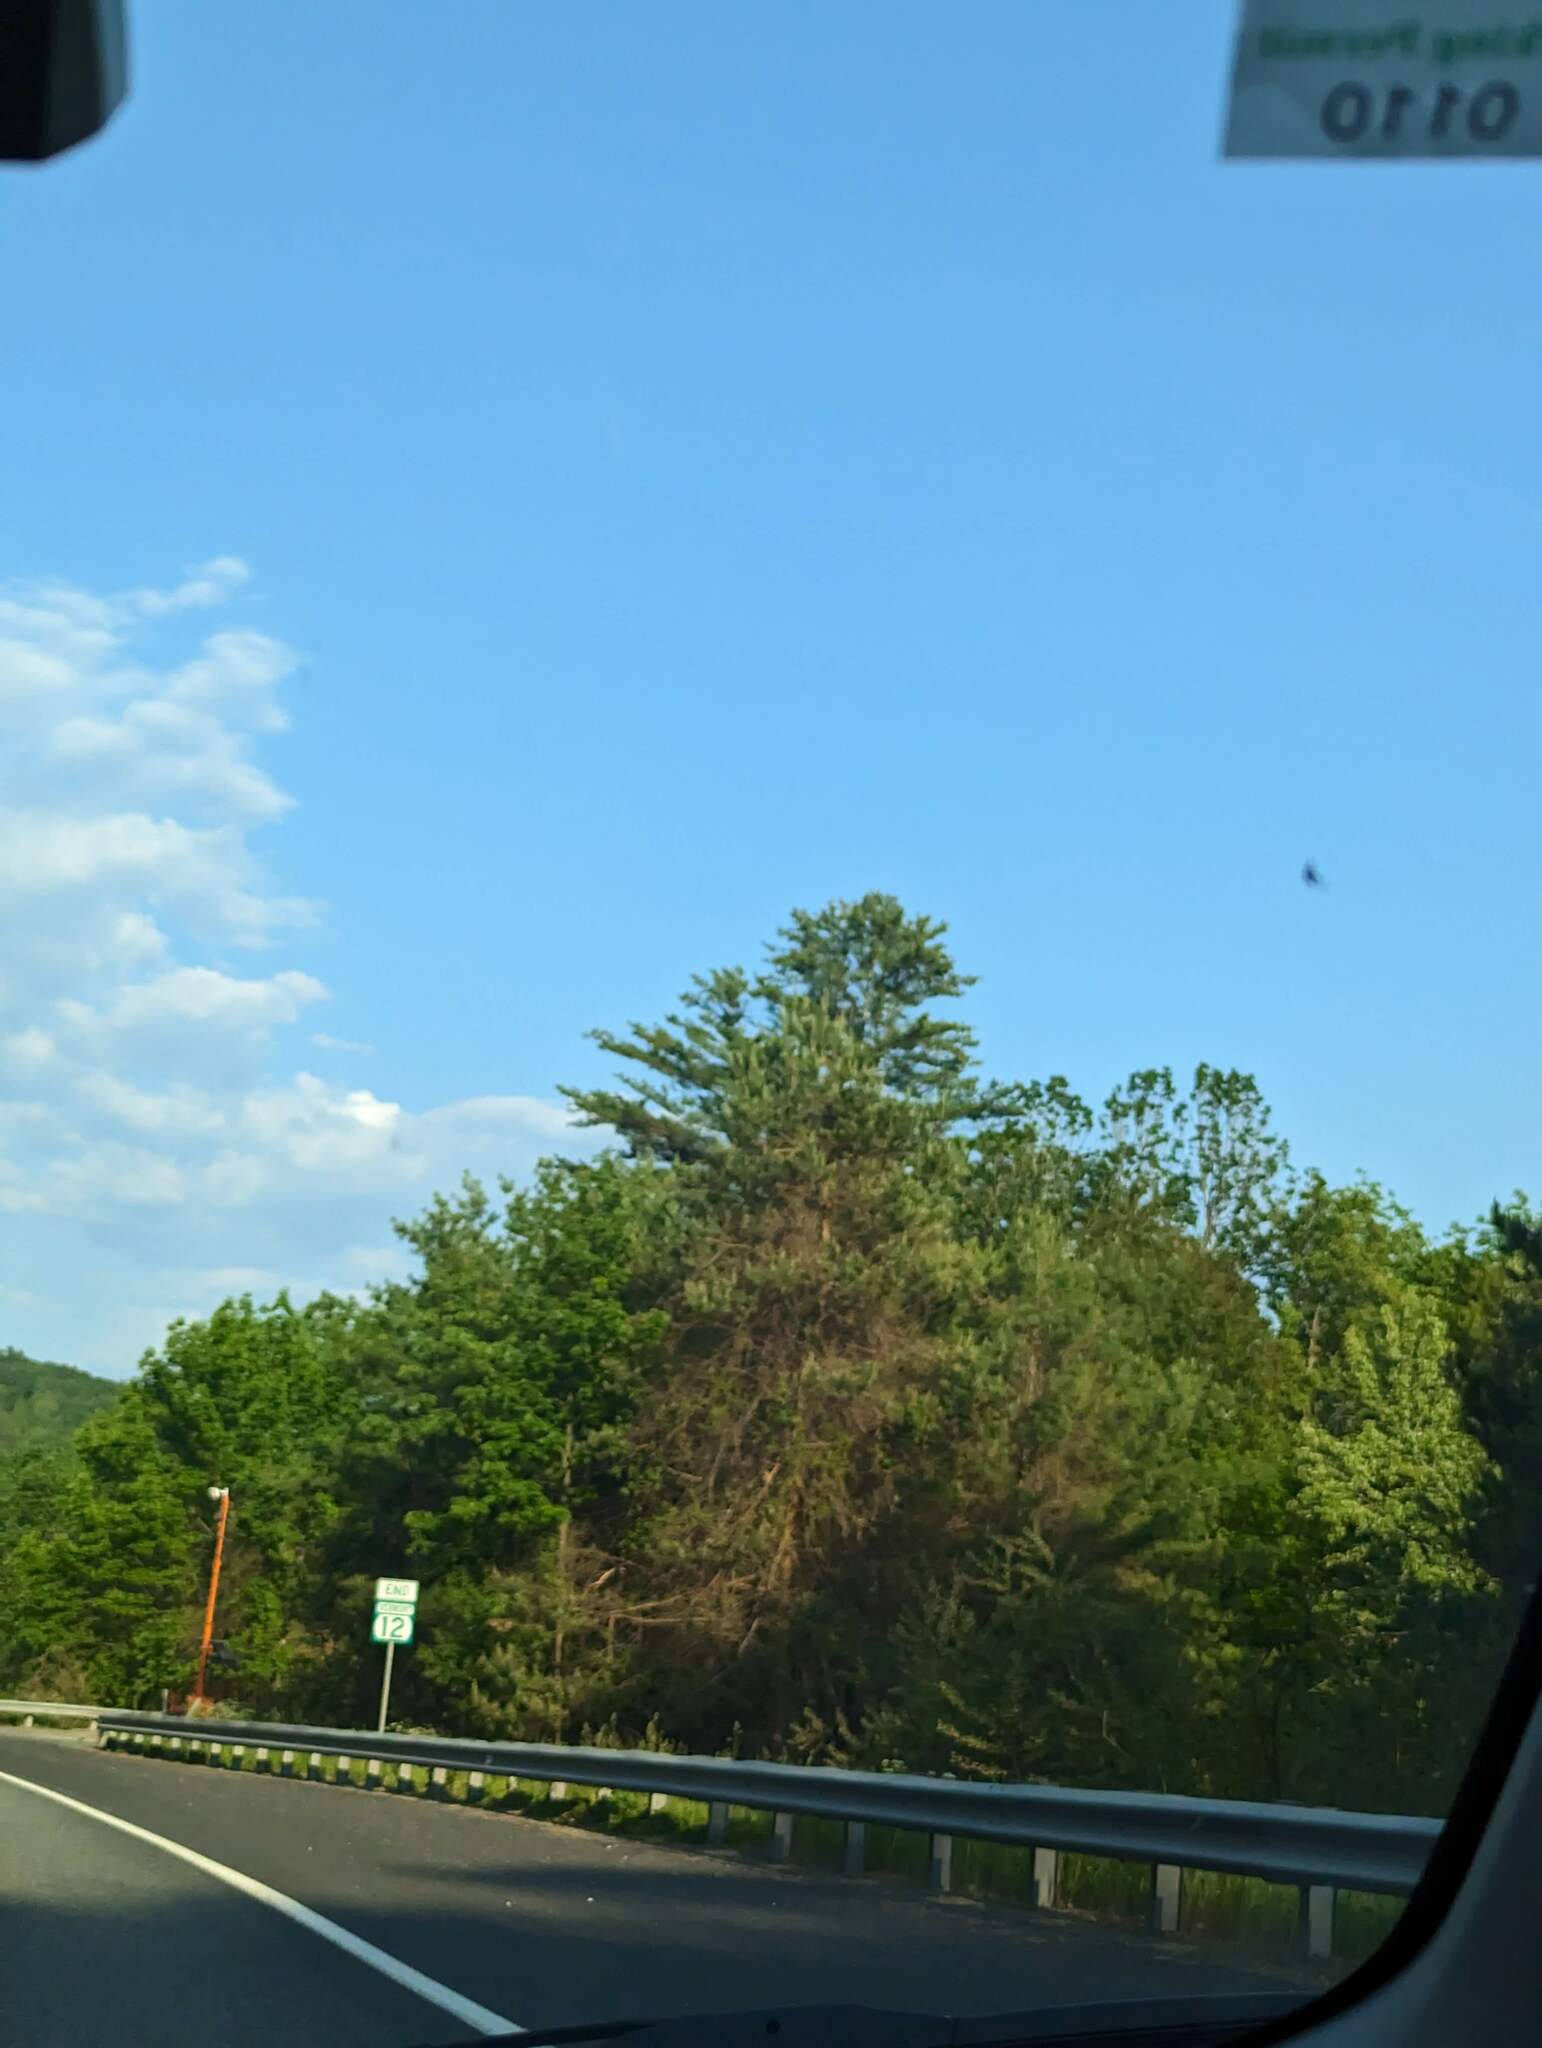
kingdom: Plantae
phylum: Tracheophyta
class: Pinopsida
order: Pinales
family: Pinaceae
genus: Pinus
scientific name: Pinus strobus
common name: Weymouth pine
